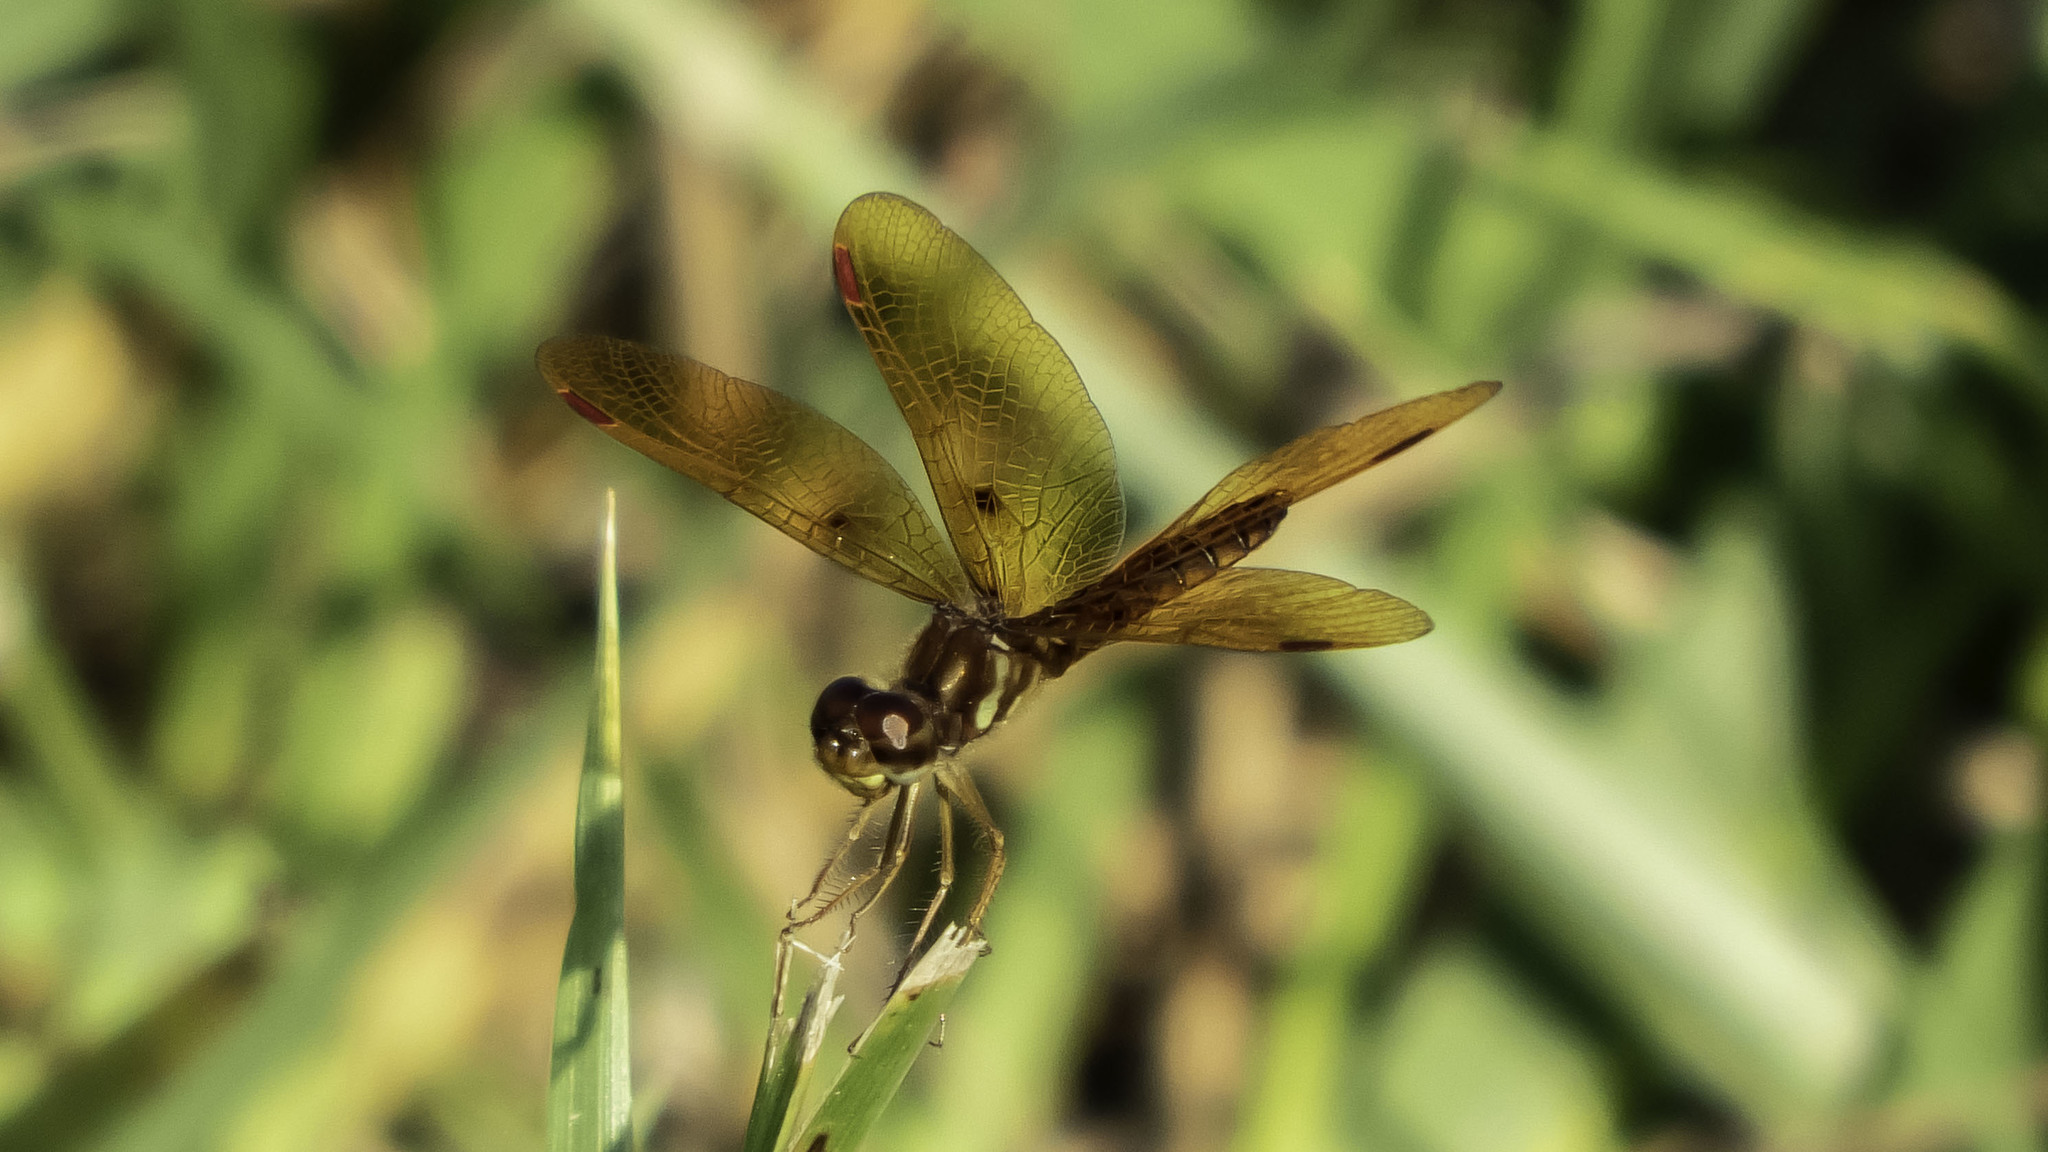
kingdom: Animalia
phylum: Arthropoda
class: Insecta
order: Odonata
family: Libellulidae
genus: Perithemis
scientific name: Perithemis tenera
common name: Eastern amberwing
